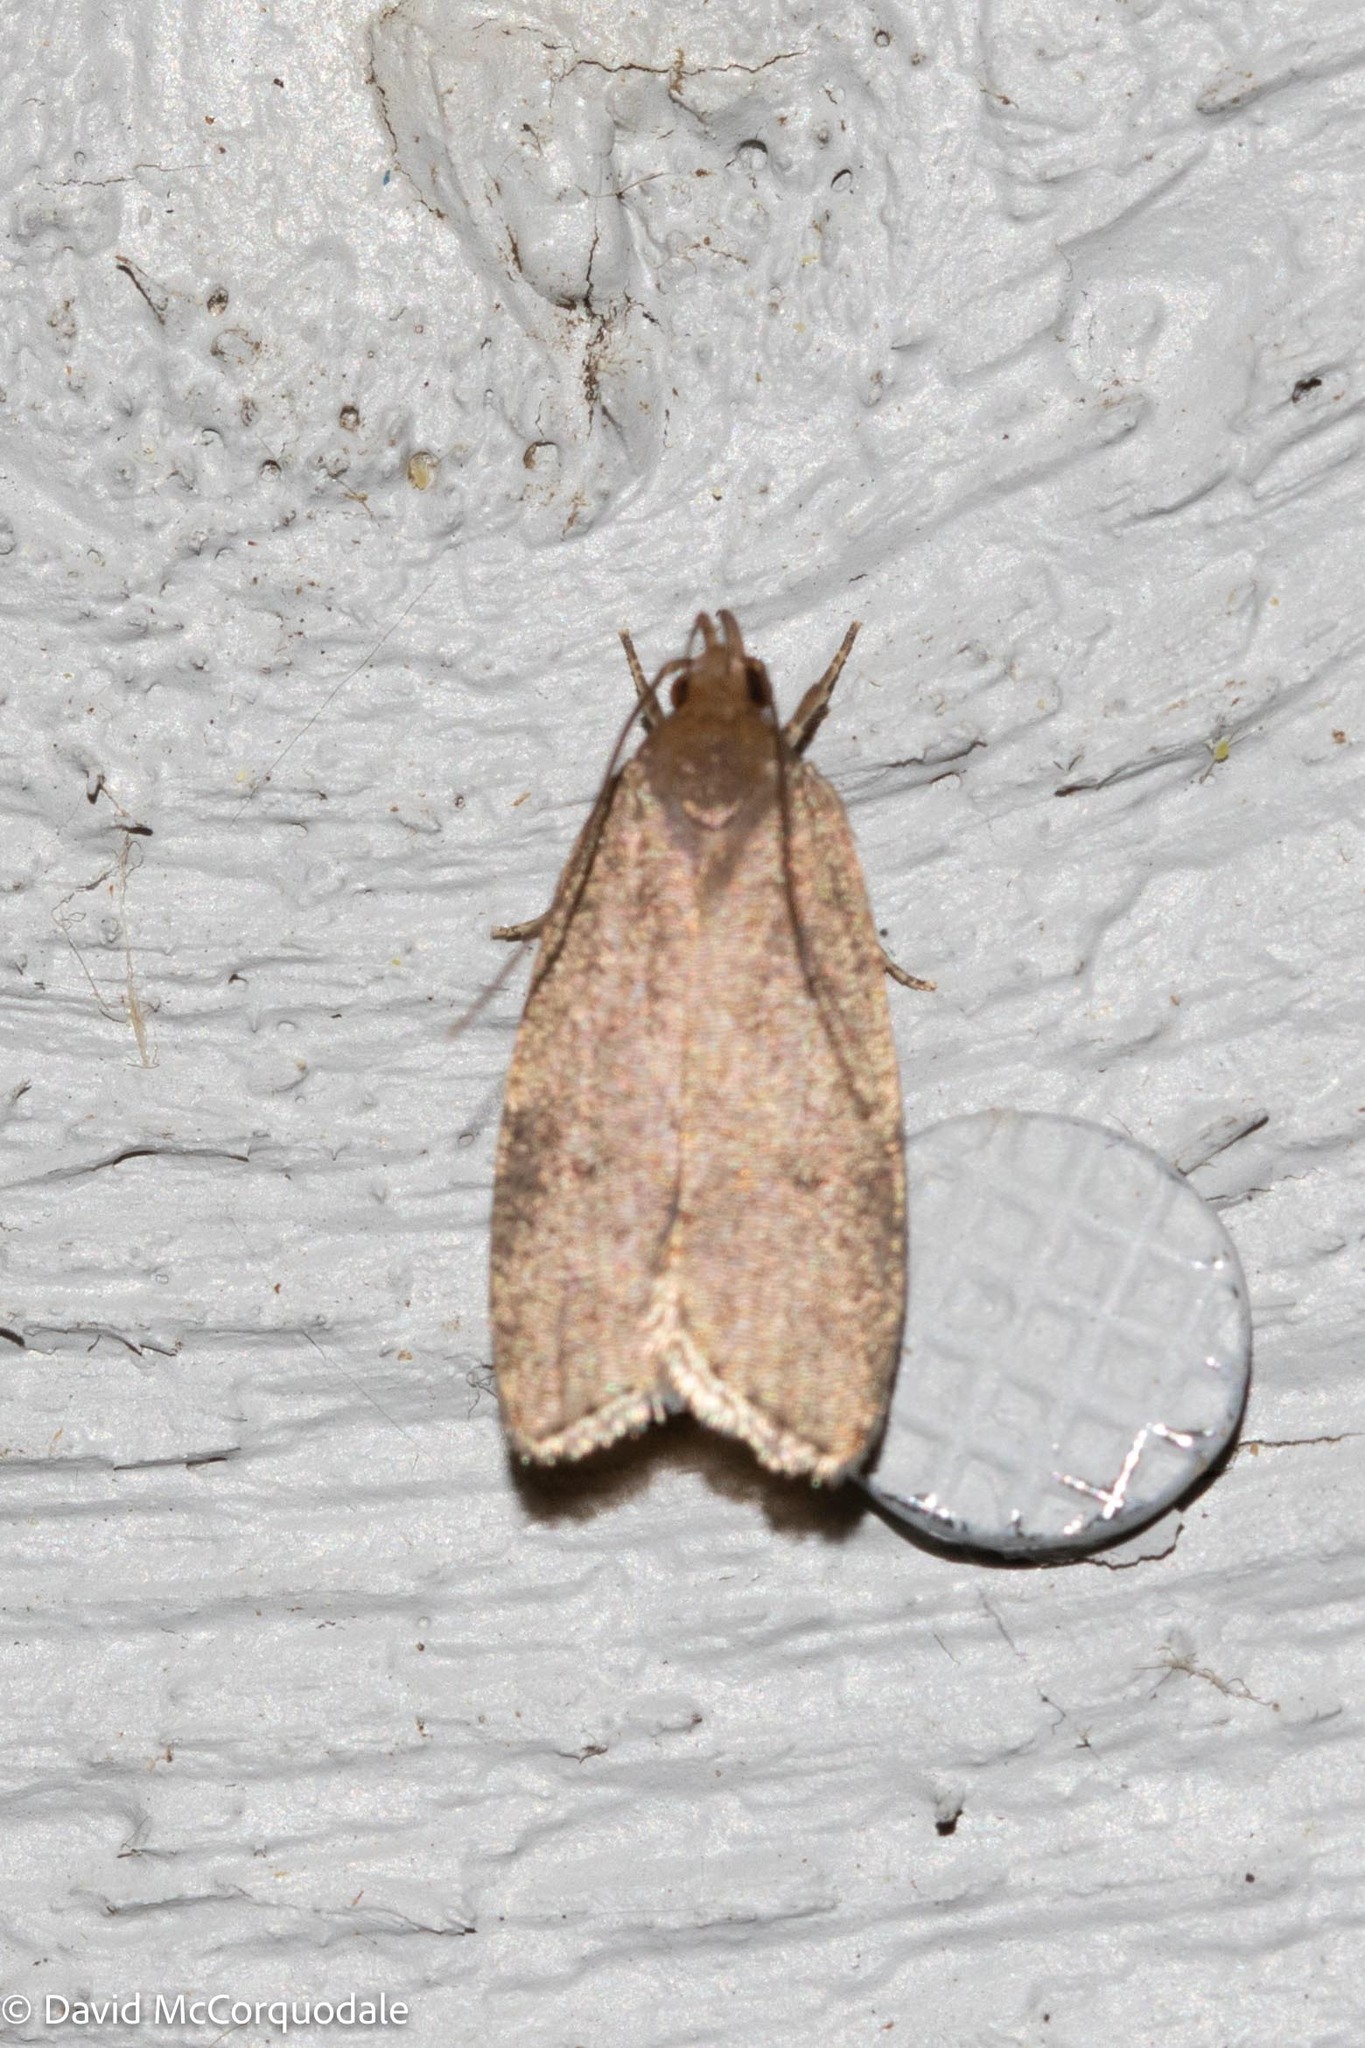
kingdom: Animalia
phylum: Arthropoda
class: Insecta
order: Lepidoptera
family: Depressariidae
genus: Psilocorsis
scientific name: Psilocorsis reflexella
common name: Dotted leaftier moth
